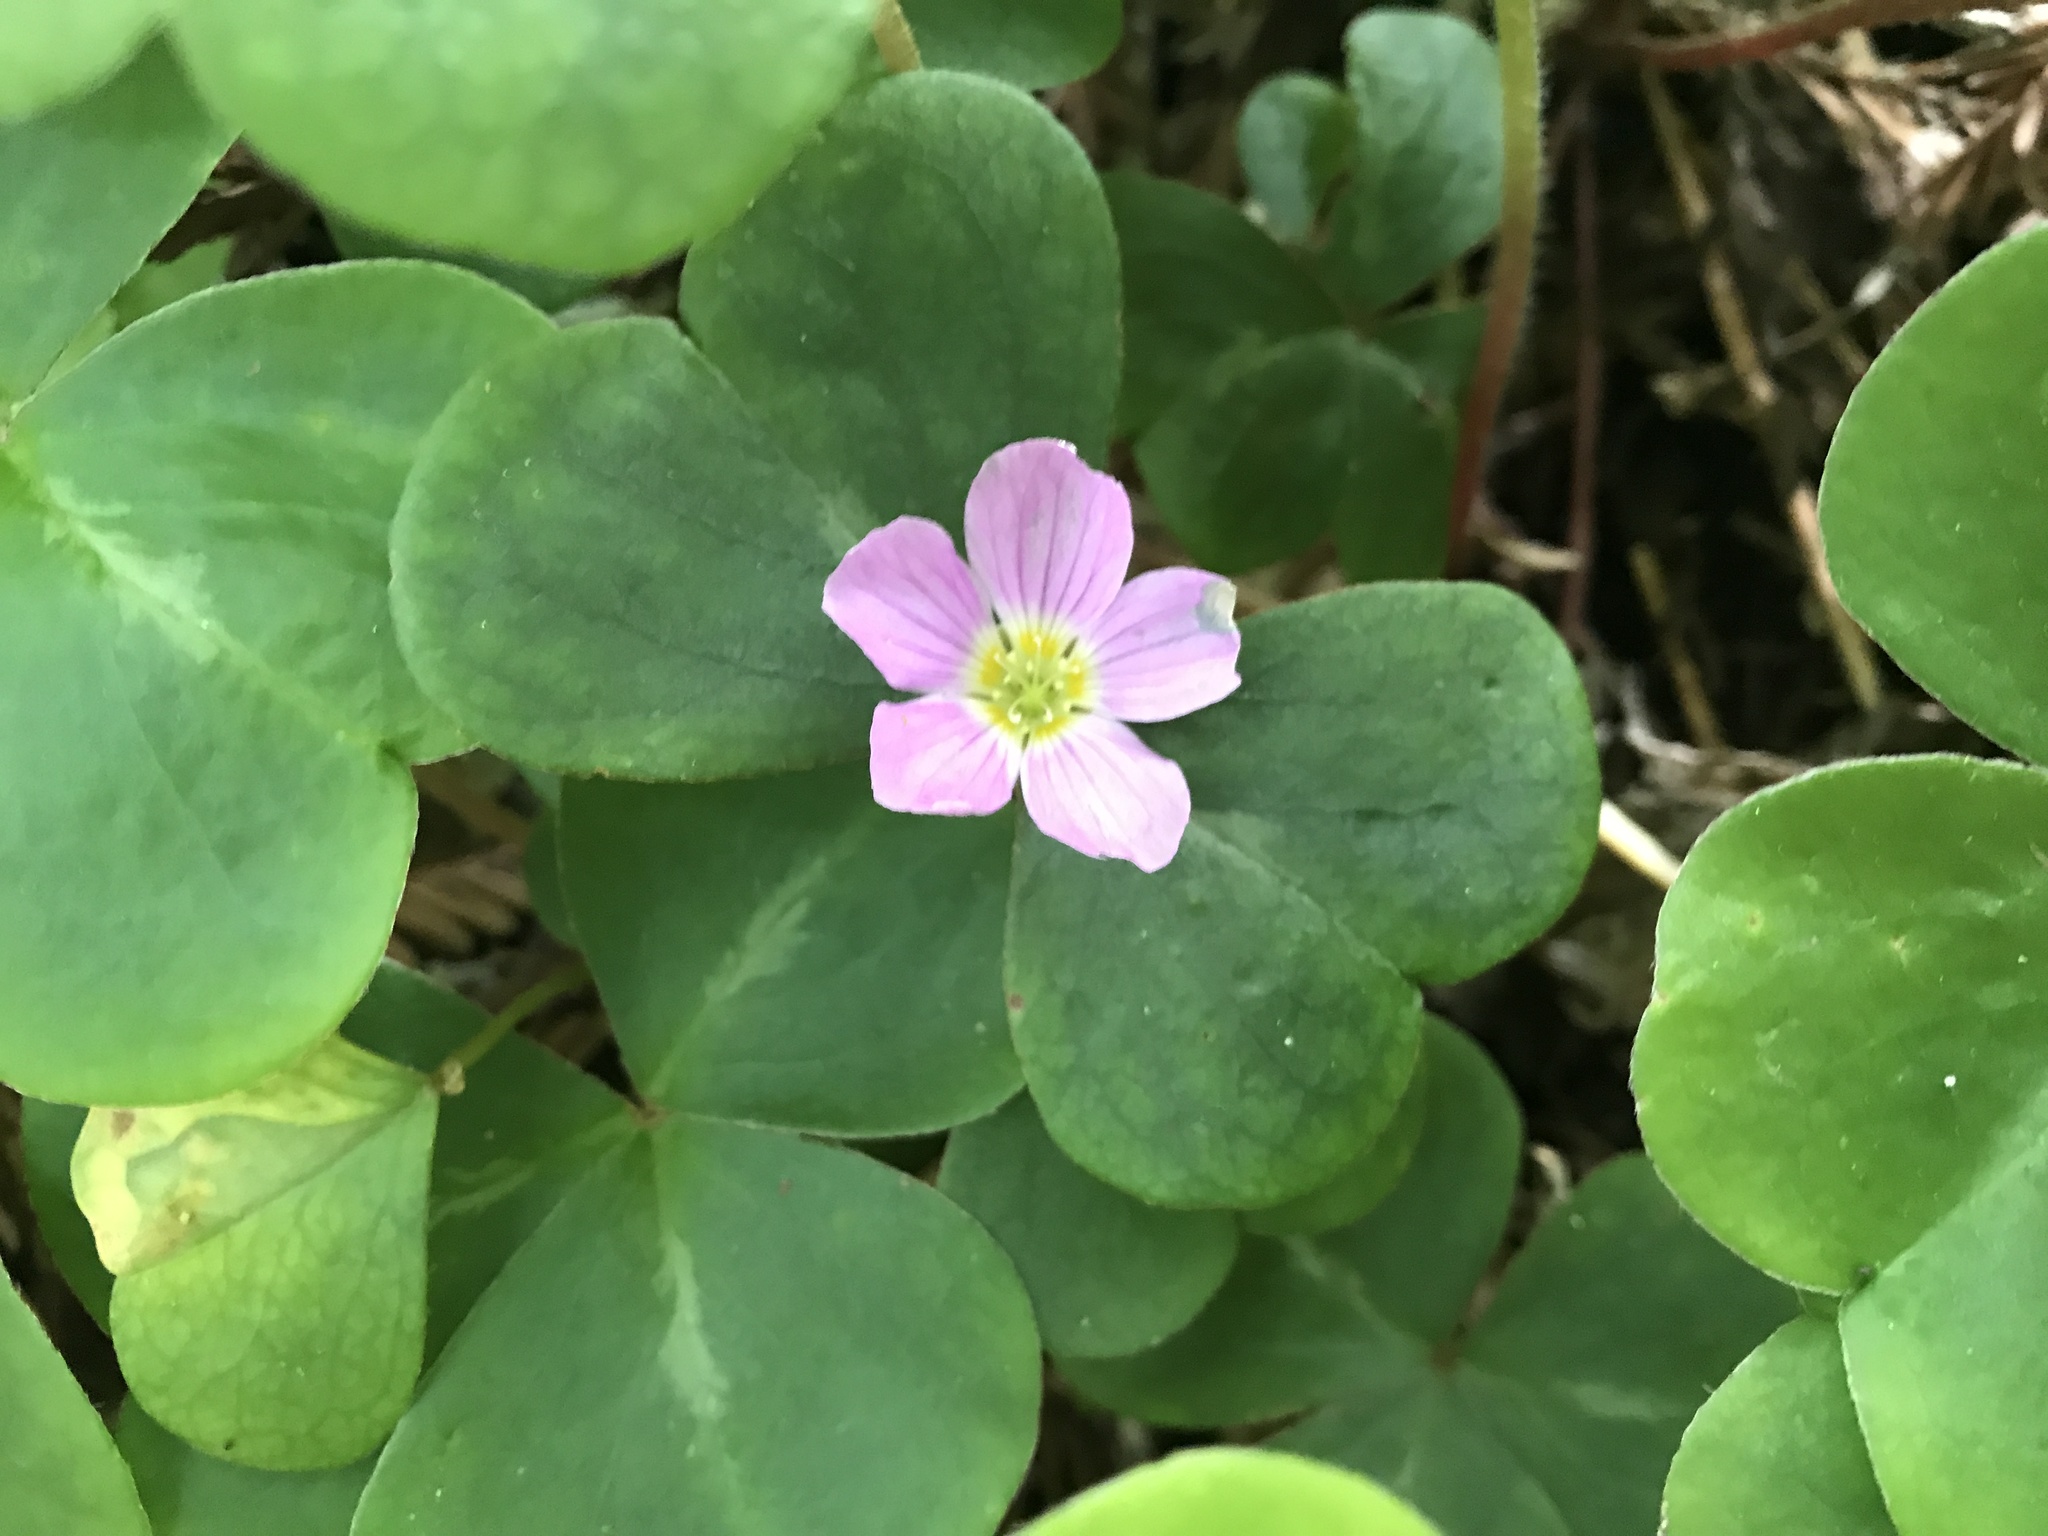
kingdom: Plantae
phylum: Tracheophyta
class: Magnoliopsida
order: Oxalidales
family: Oxalidaceae
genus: Oxalis
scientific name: Oxalis oregana
